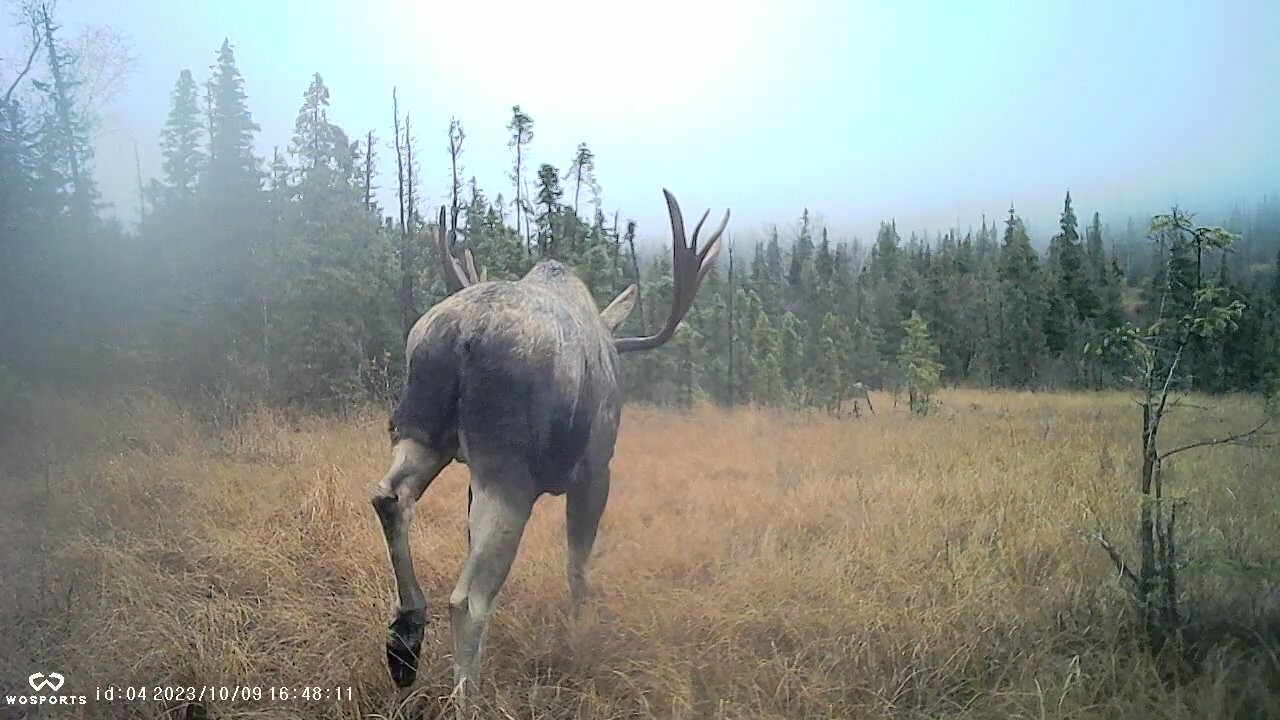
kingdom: Animalia
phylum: Chordata
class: Mammalia
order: Artiodactyla
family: Cervidae
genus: Alces
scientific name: Alces alces
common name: Moose
